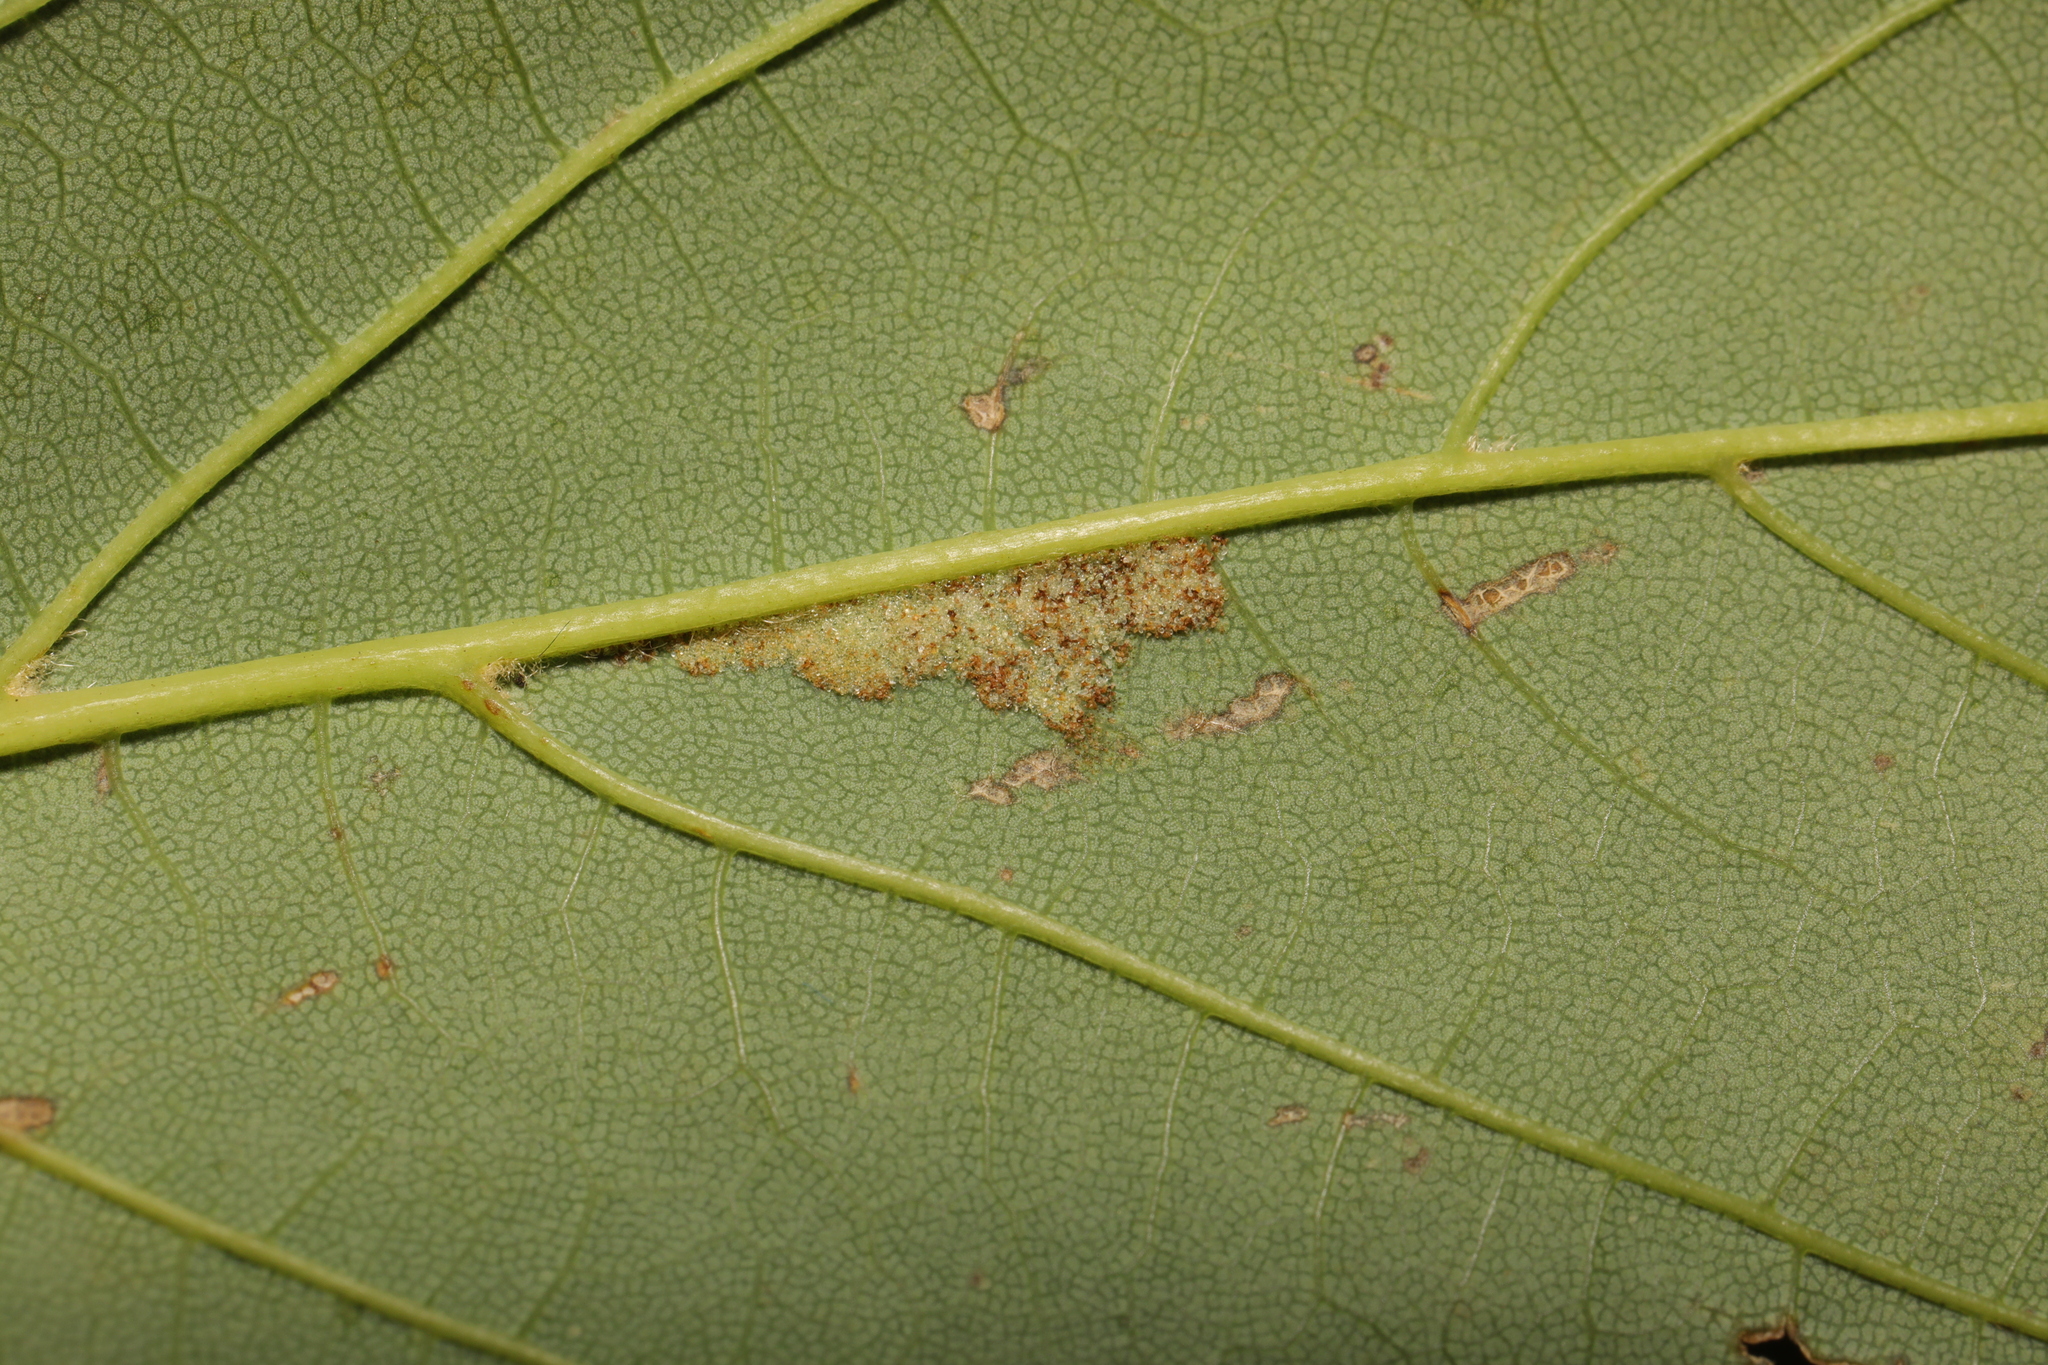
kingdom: Animalia
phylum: Arthropoda
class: Arachnida
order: Trombidiformes
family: Eriophyidae
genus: Aceria
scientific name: Aceria pseudoplatani
